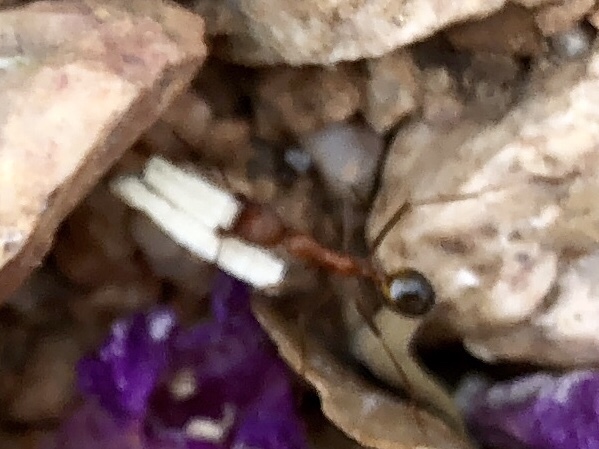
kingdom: Animalia
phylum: Arthropoda
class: Insecta
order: Hymenoptera
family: Formicidae
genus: Novomessor
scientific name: Novomessor albisetosa
